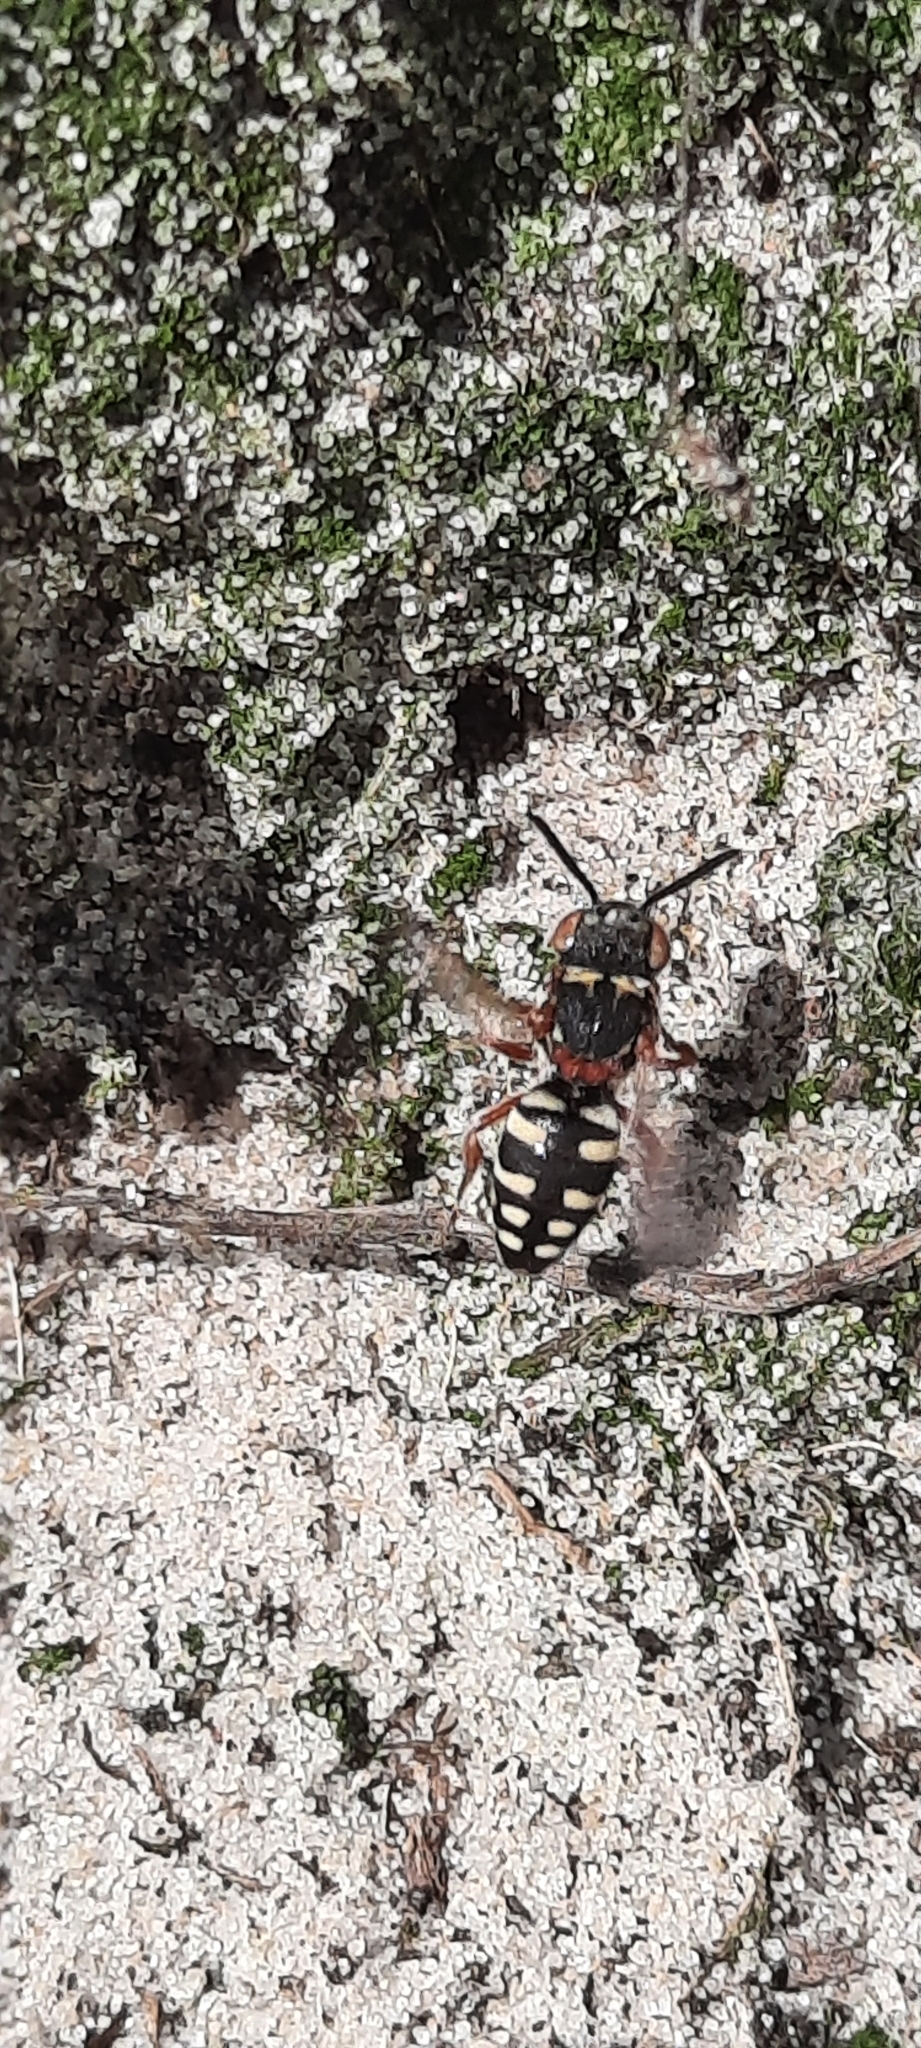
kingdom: Animalia
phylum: Arthropoda
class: Insecta
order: Hymenoptera
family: Apidae
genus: Epeolus
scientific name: Epeolus cruciger
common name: Red-thighed epeolus
